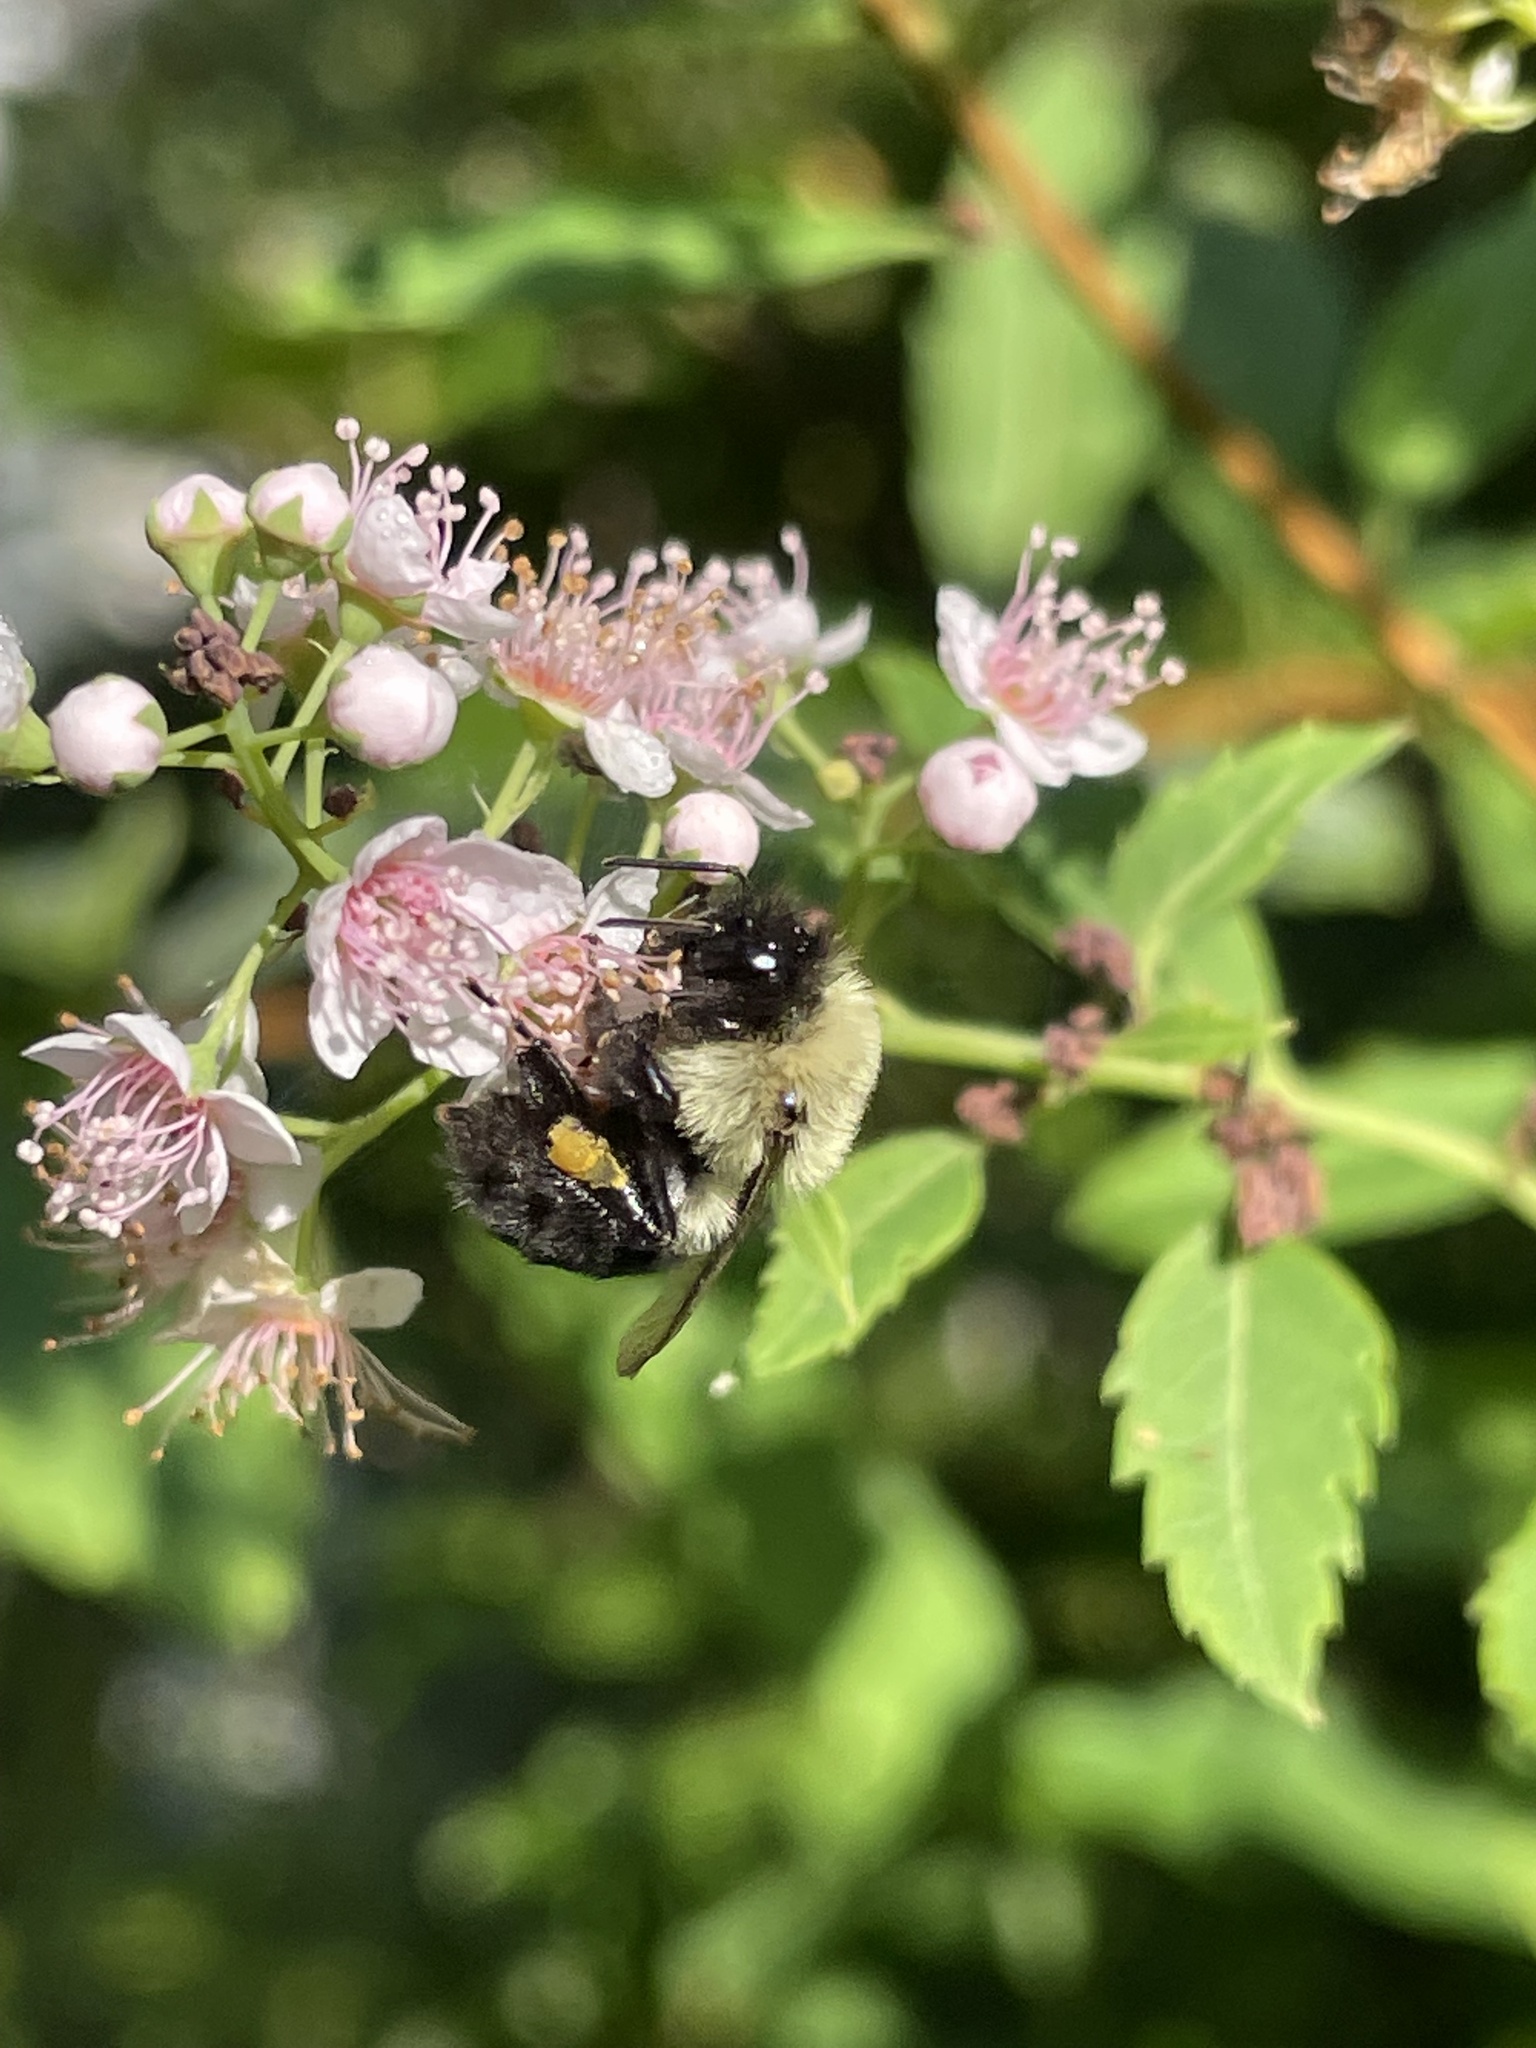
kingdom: Animalia
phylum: Arthropoda
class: Insecta
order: Hymenoptera
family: Apidae
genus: Bombus
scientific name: Bombus impatiens
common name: Common eastern bumble bee
